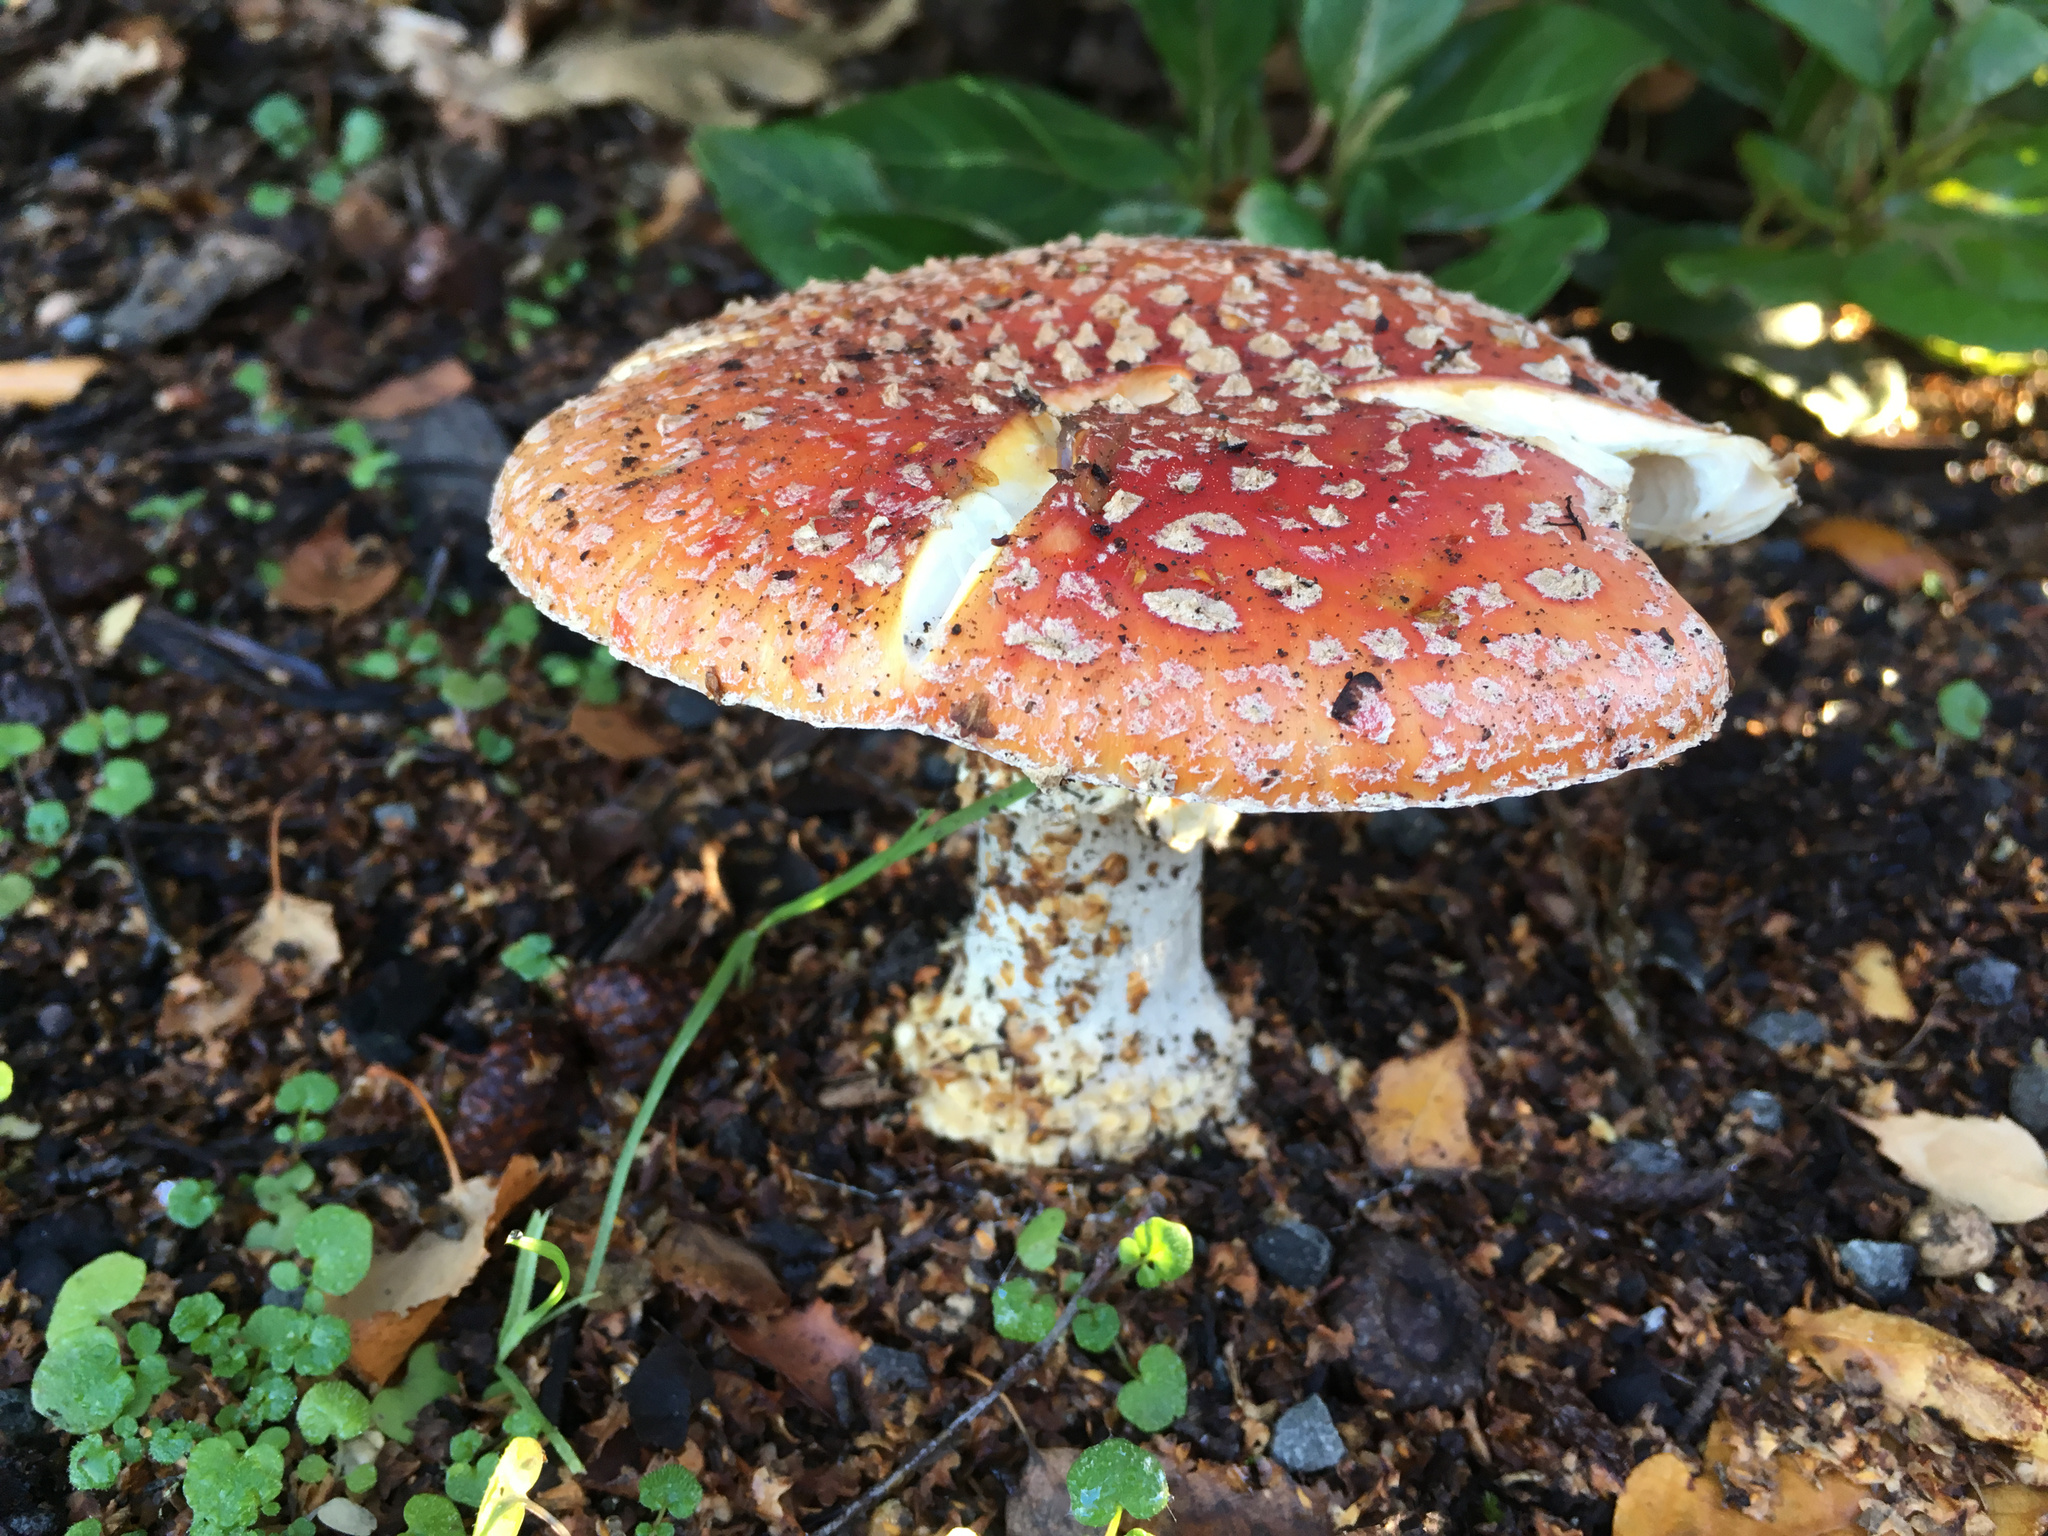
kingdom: Fungi
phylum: Basidiomycota
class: Agaricomycetes
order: Agaricales
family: Amanitaceae
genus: Amanita
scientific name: Amanita muscaria
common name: Fly agaric
